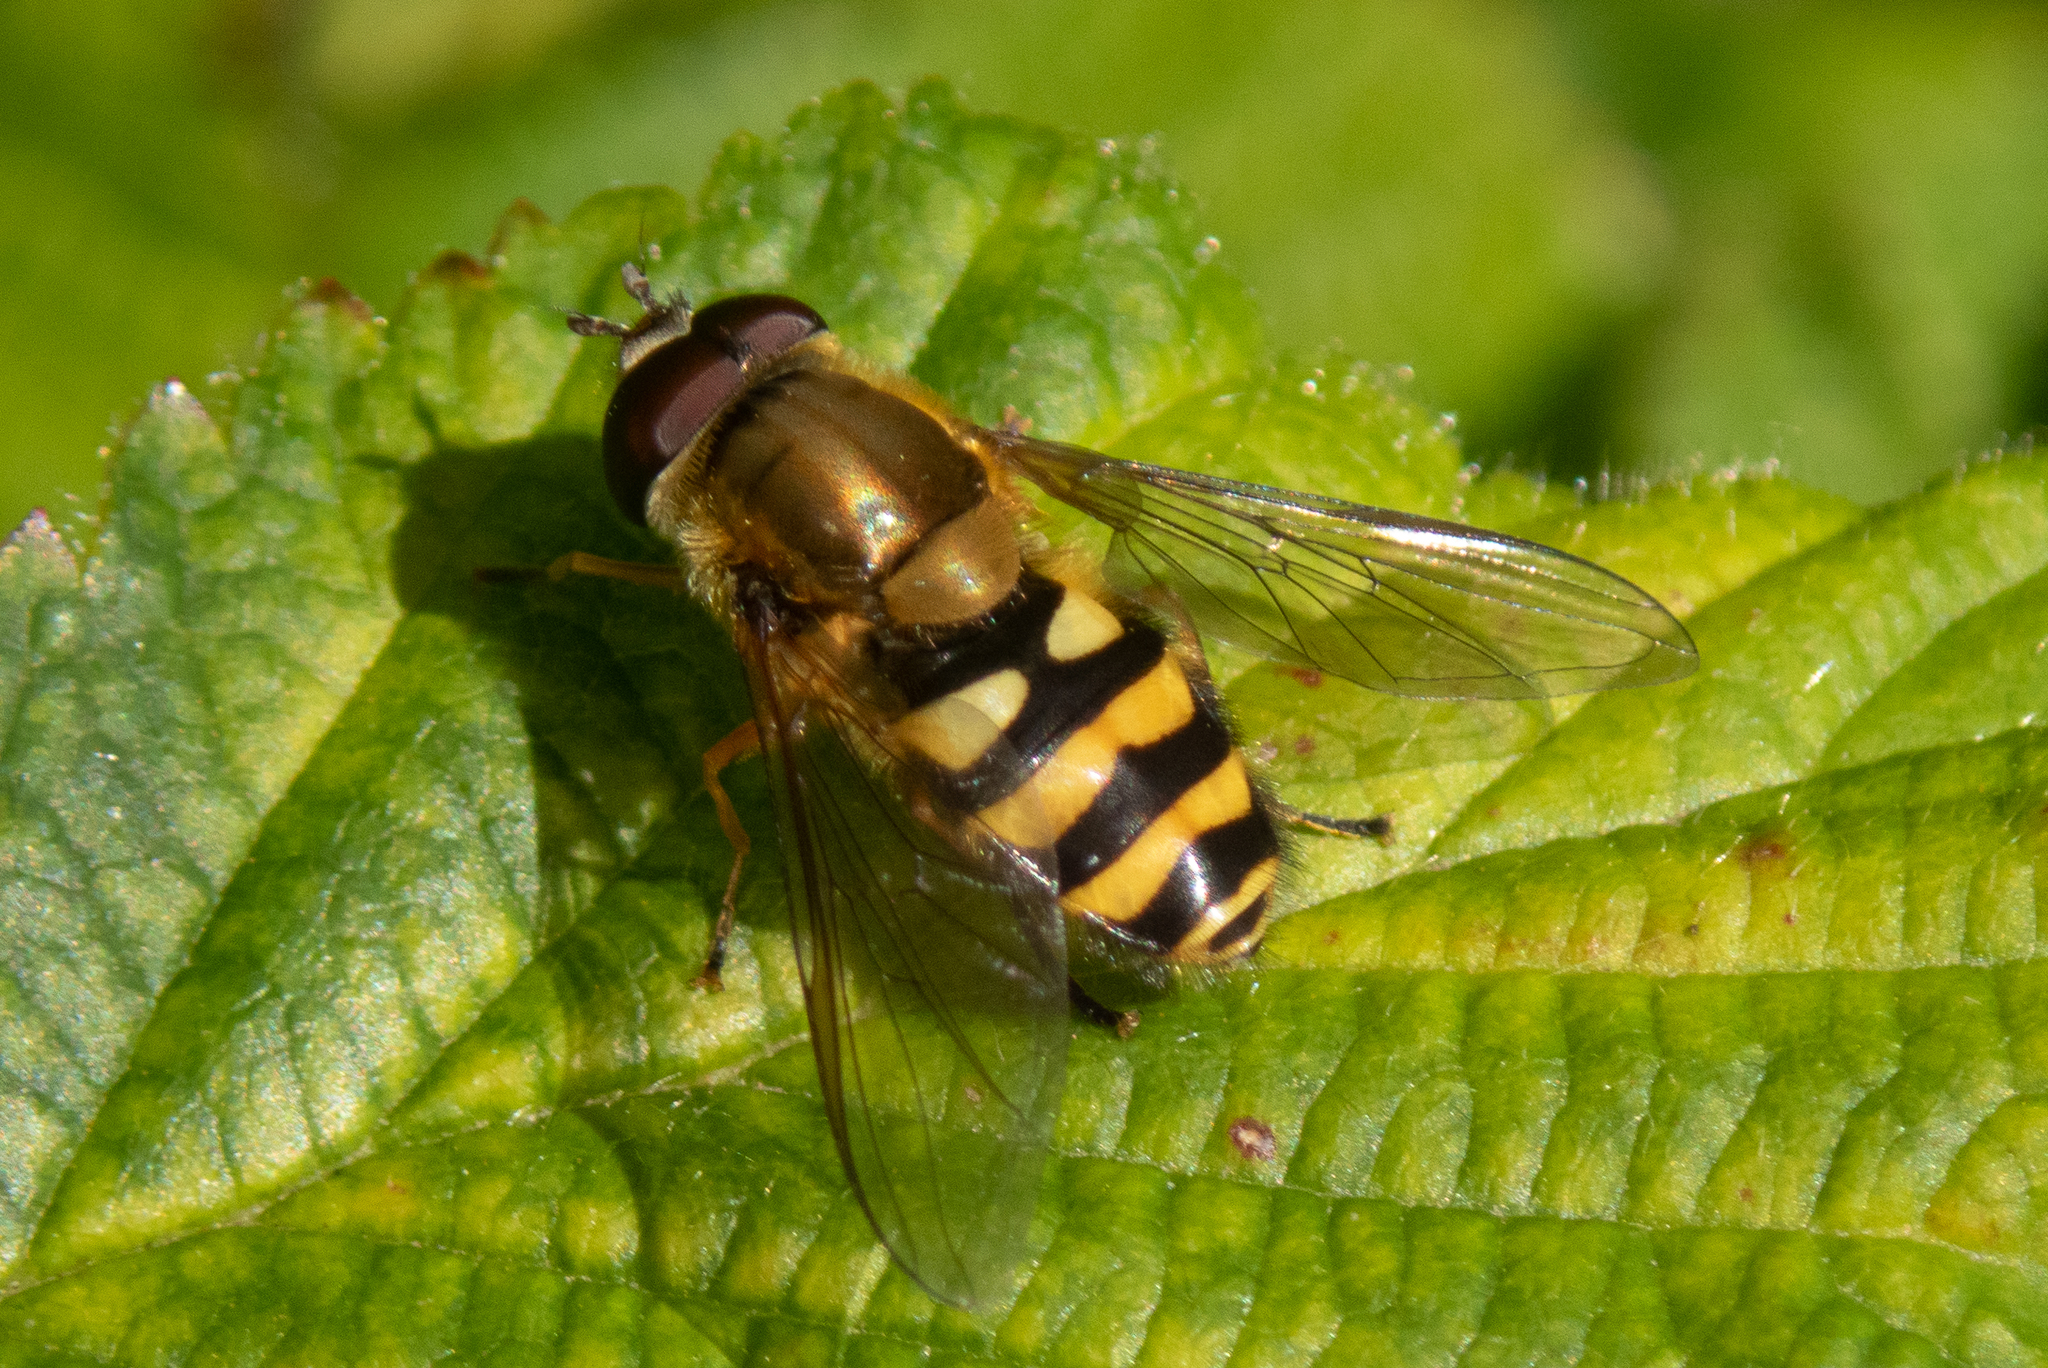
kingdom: Animalia
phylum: Arthropoda
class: Insecta
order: Diptera
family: Syrphidae
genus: Syrphus
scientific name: Syrphus
